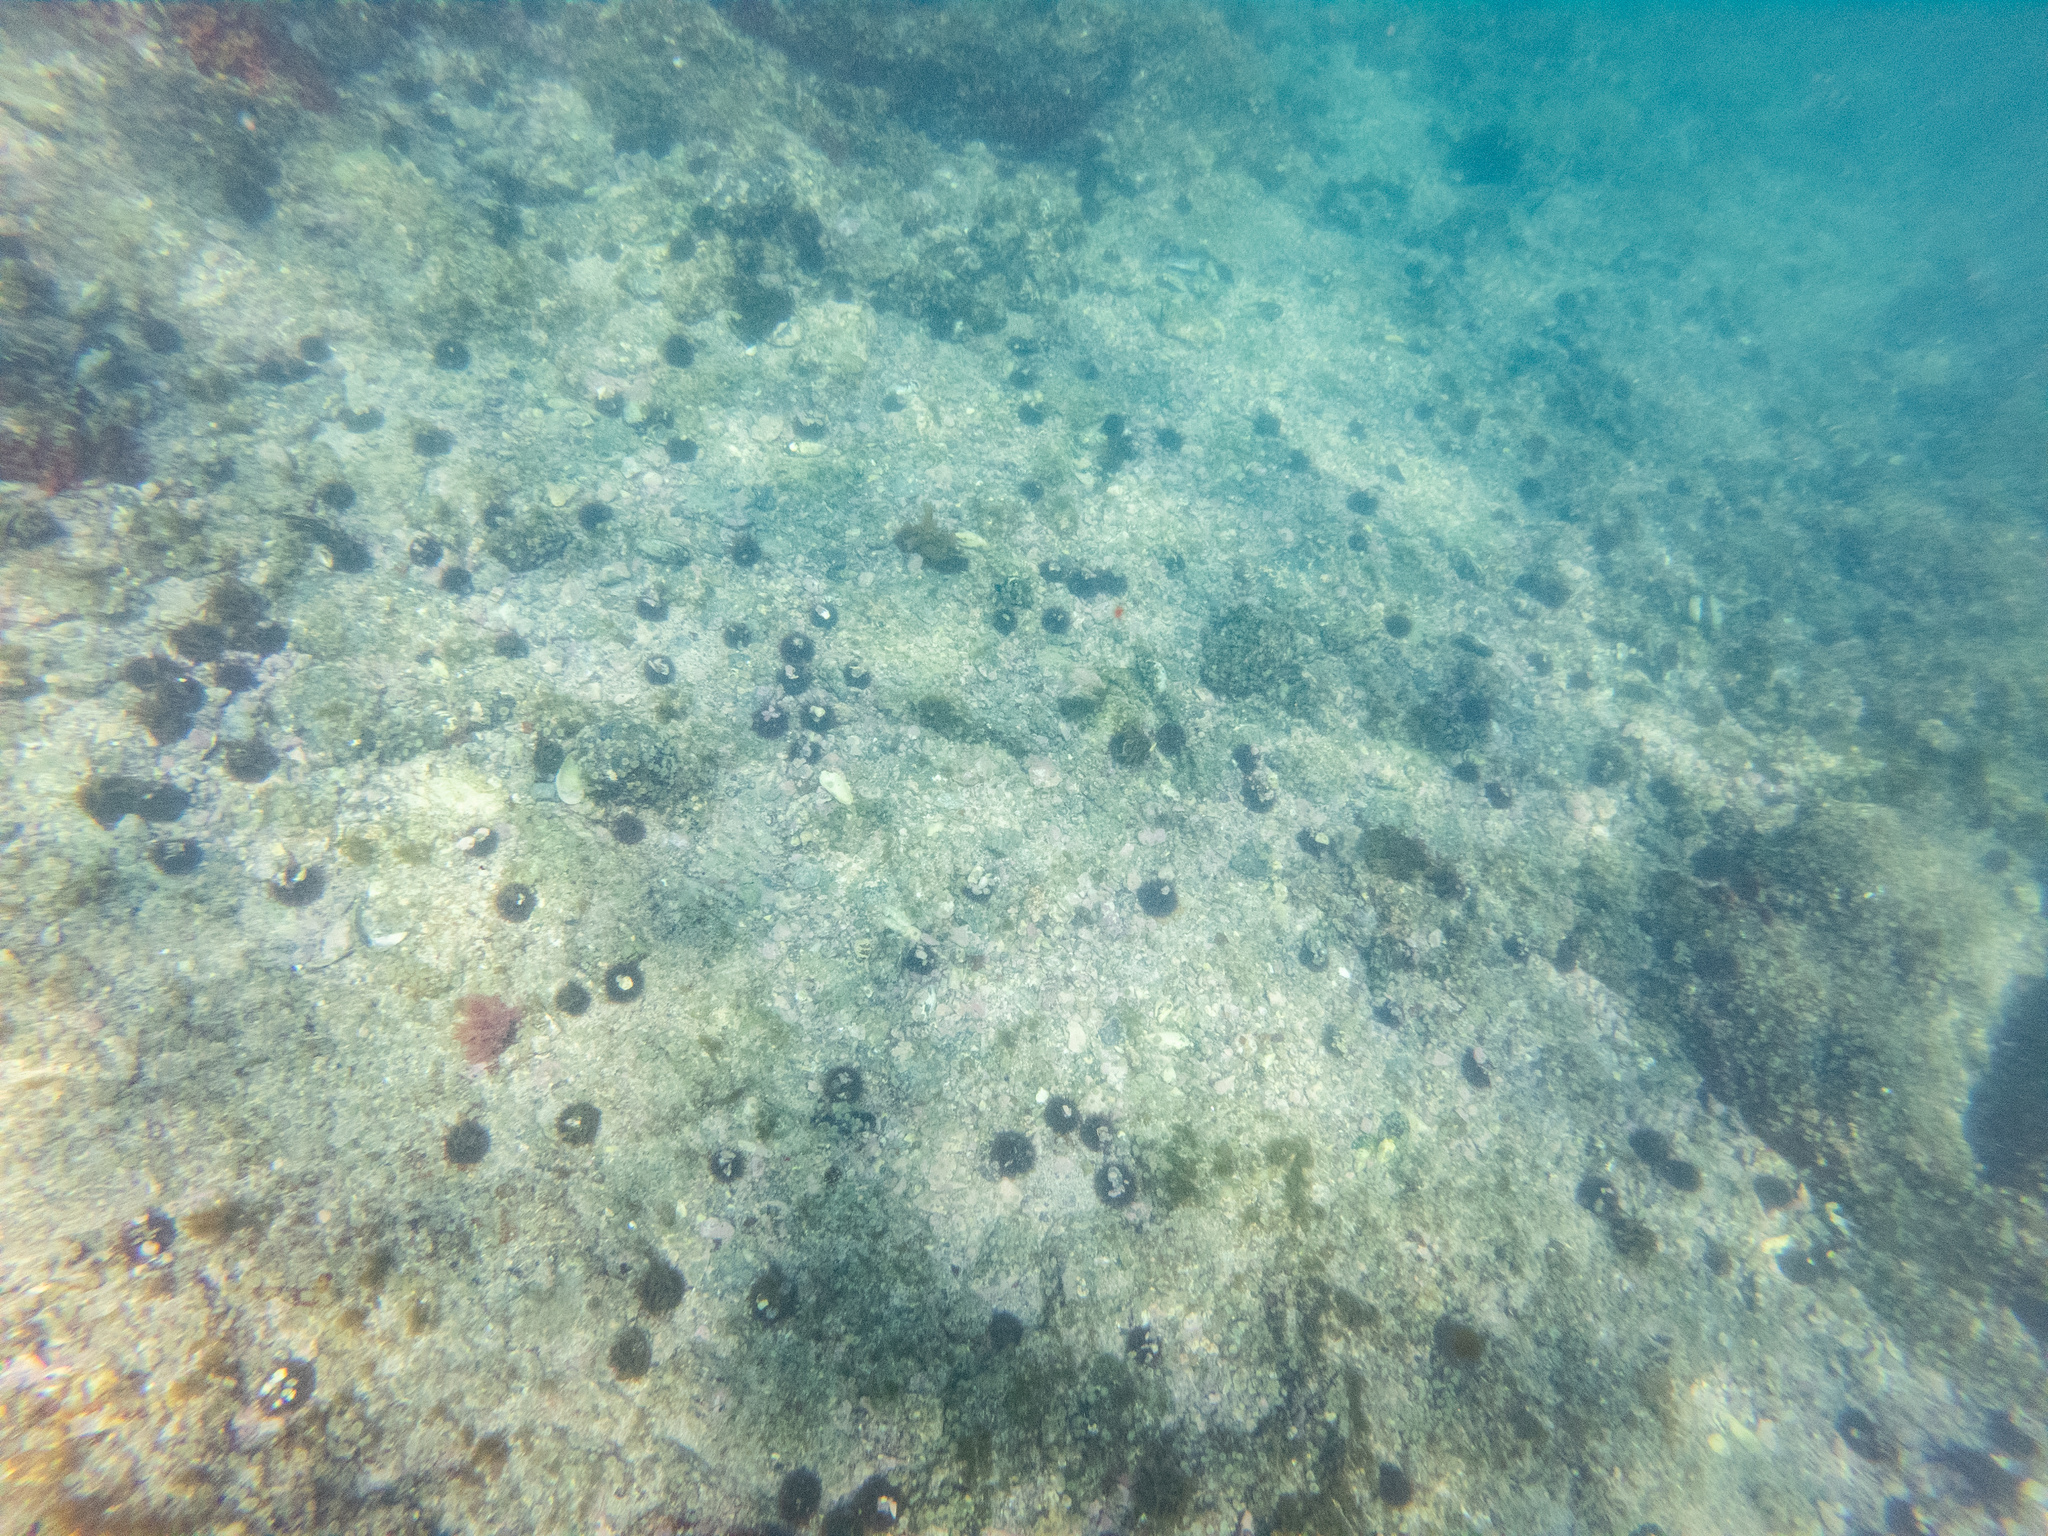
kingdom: Animalia
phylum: Echinodermata
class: Echinoidea
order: Camarodonta
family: Echinometridae
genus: Evechinus
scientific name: Evechinus chloroticus
